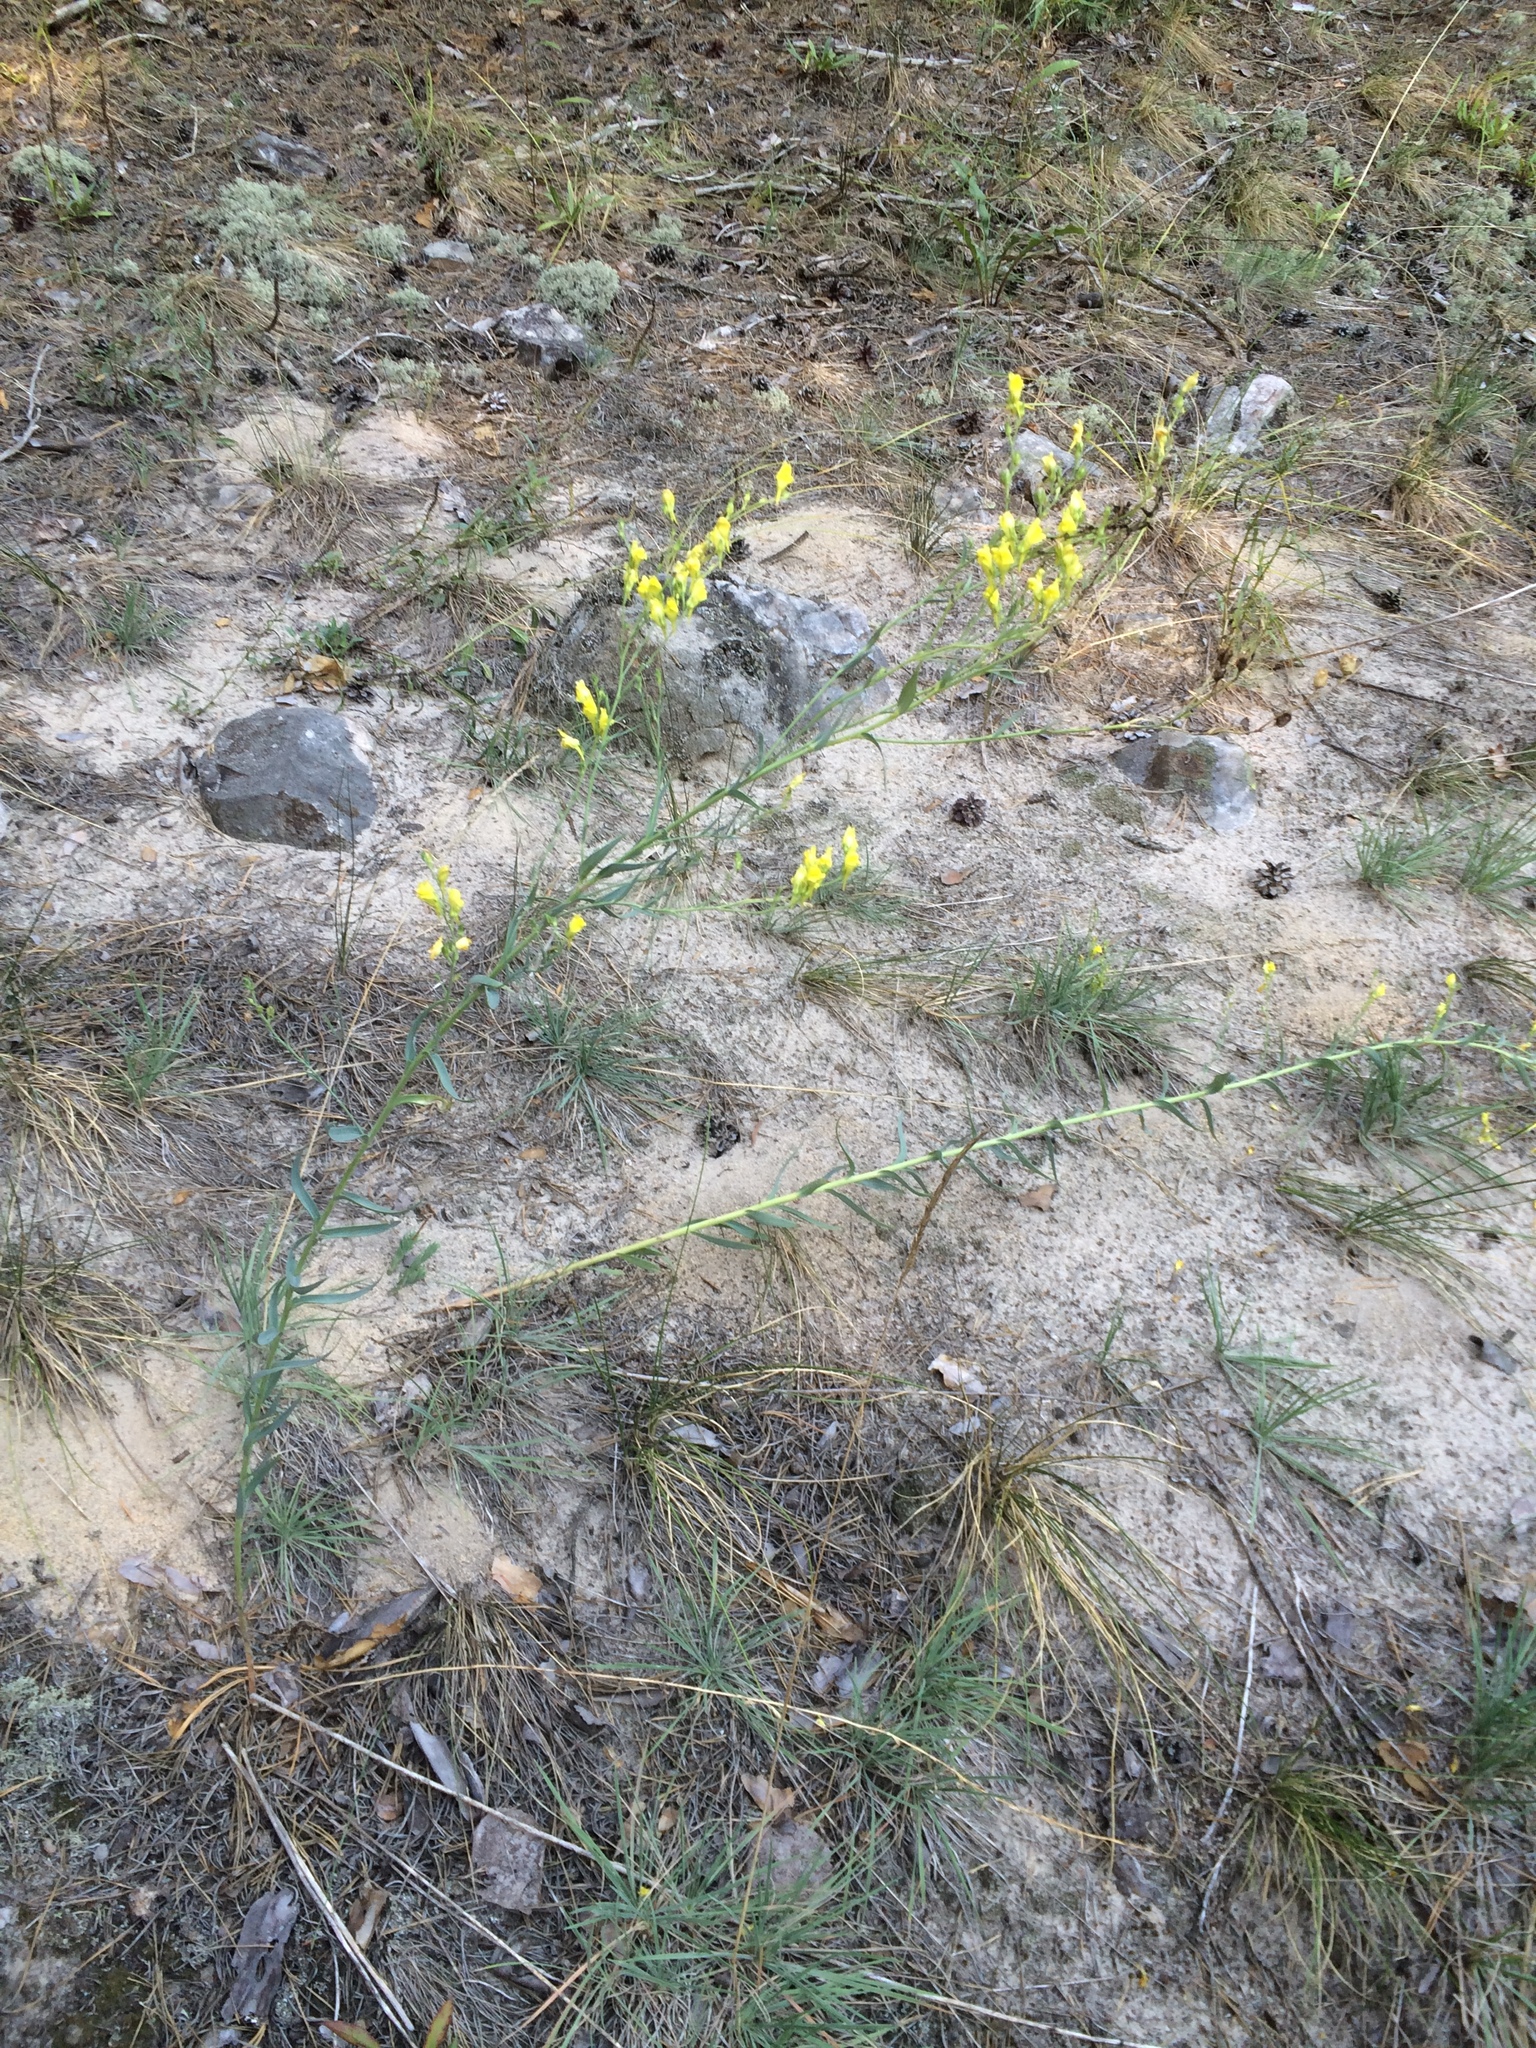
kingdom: Plantae
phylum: Tracheophyta
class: Magnoliopsida
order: Lamiales
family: Plantaginaceae
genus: Linaria
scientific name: Linaria genistifolia
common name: Broomleaf toadflax
